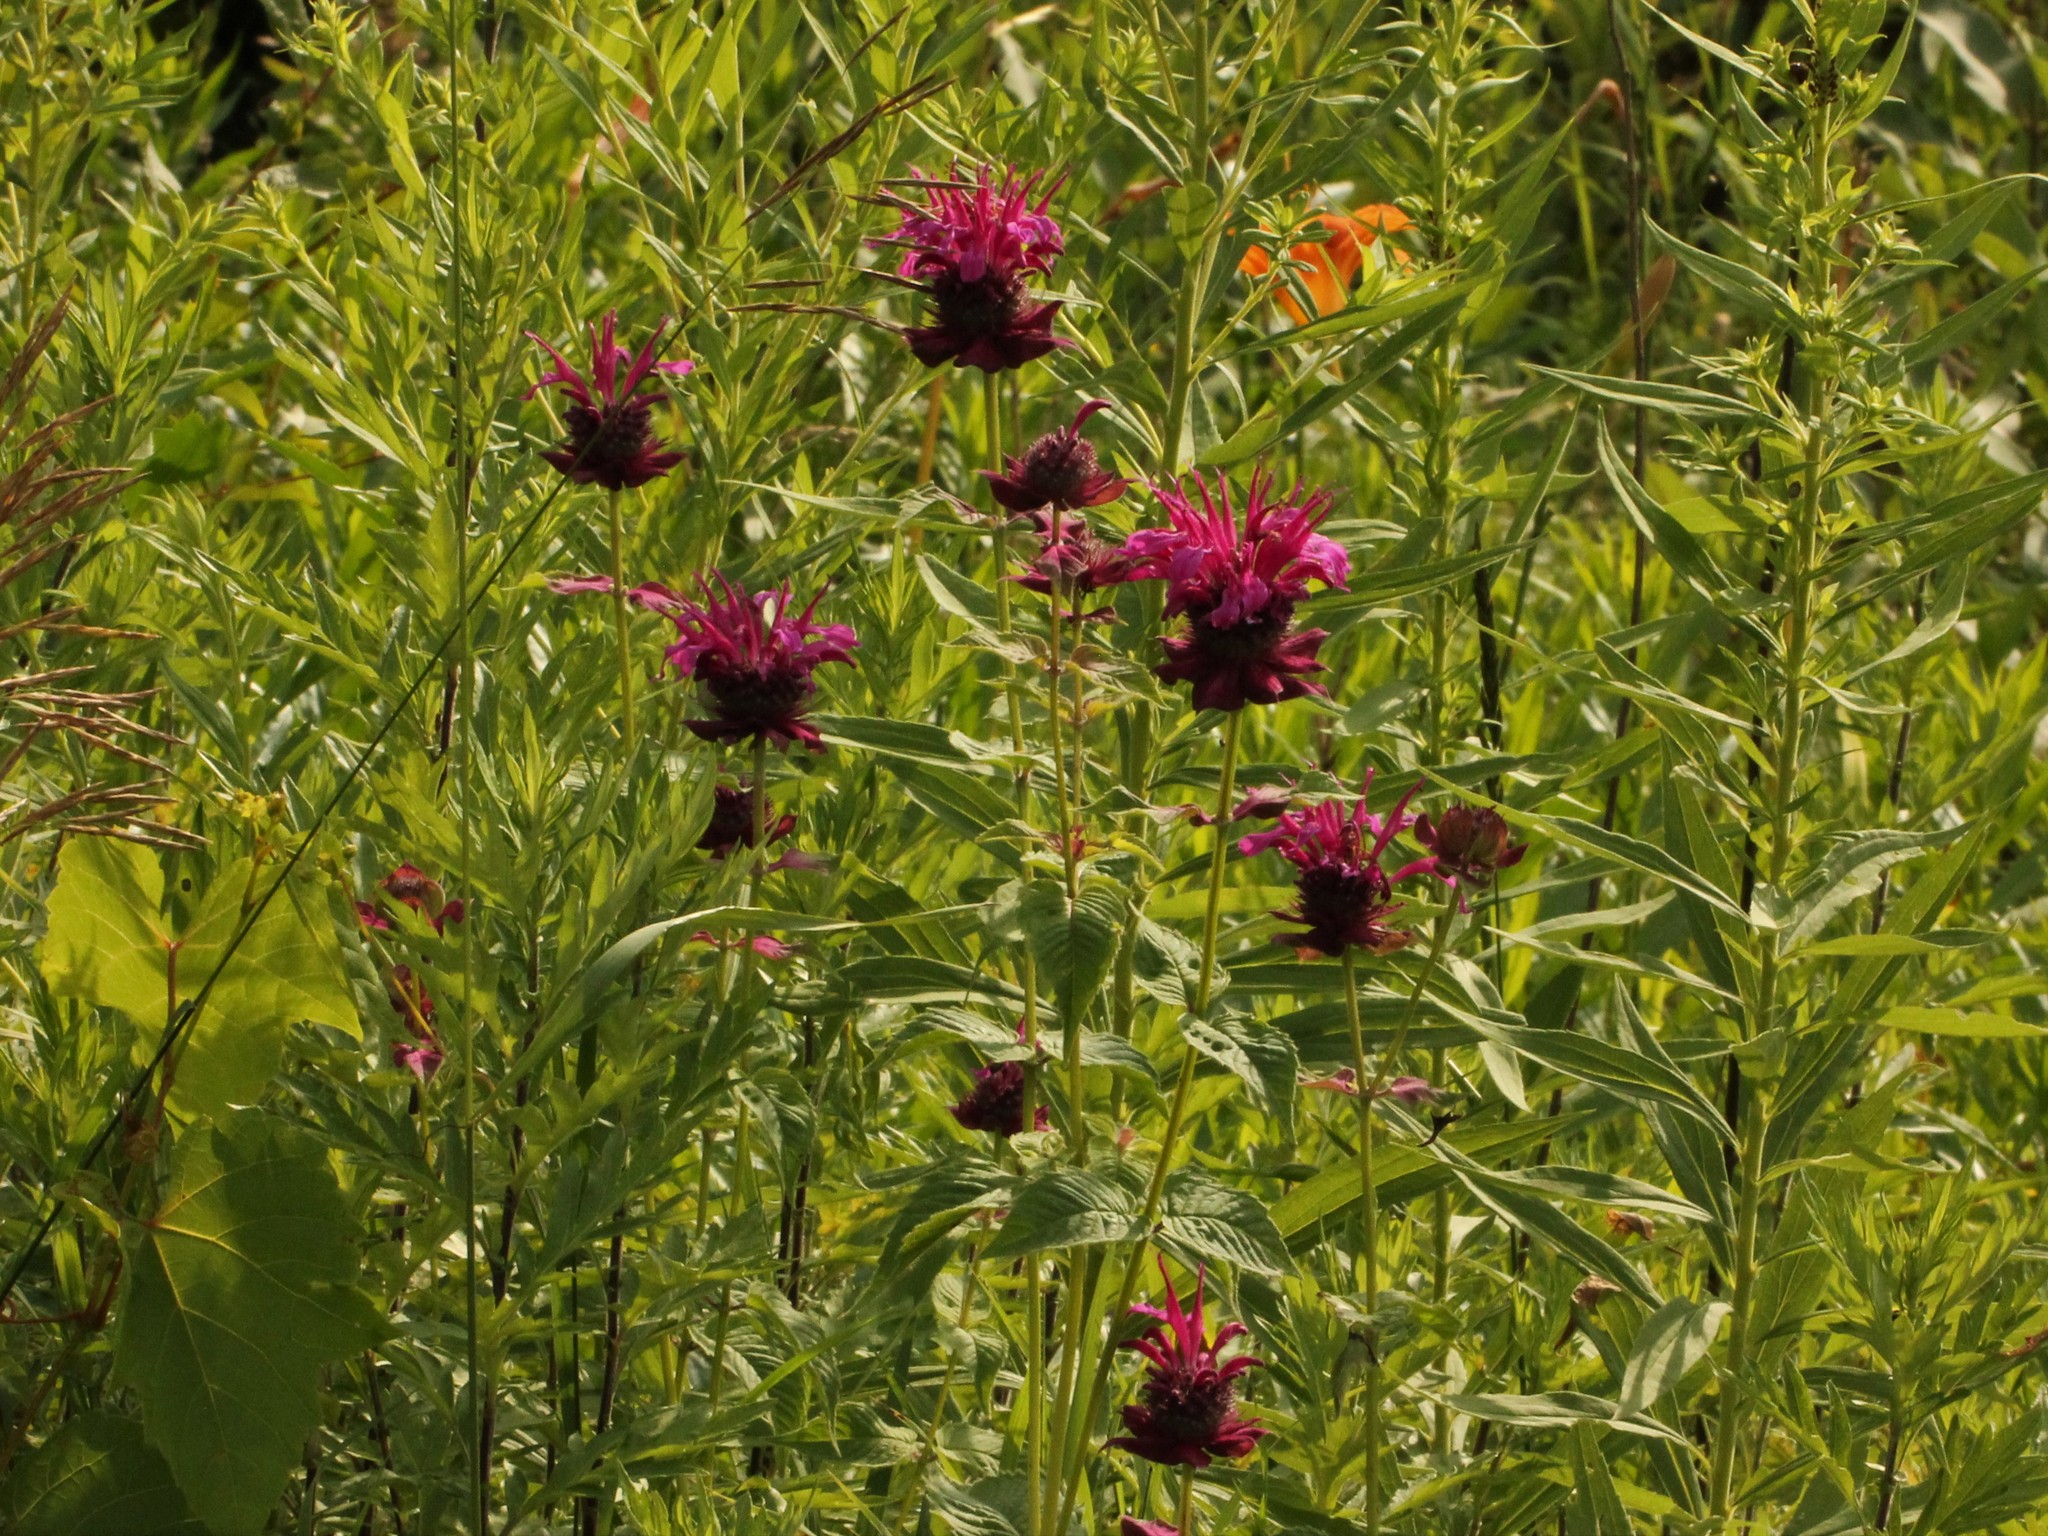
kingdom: Plantae
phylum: Tracheophyta
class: Magnoliopsida
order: Lamiales
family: Lamiaceae
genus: Monarda
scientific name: Monarda didyma
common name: Beebalm
